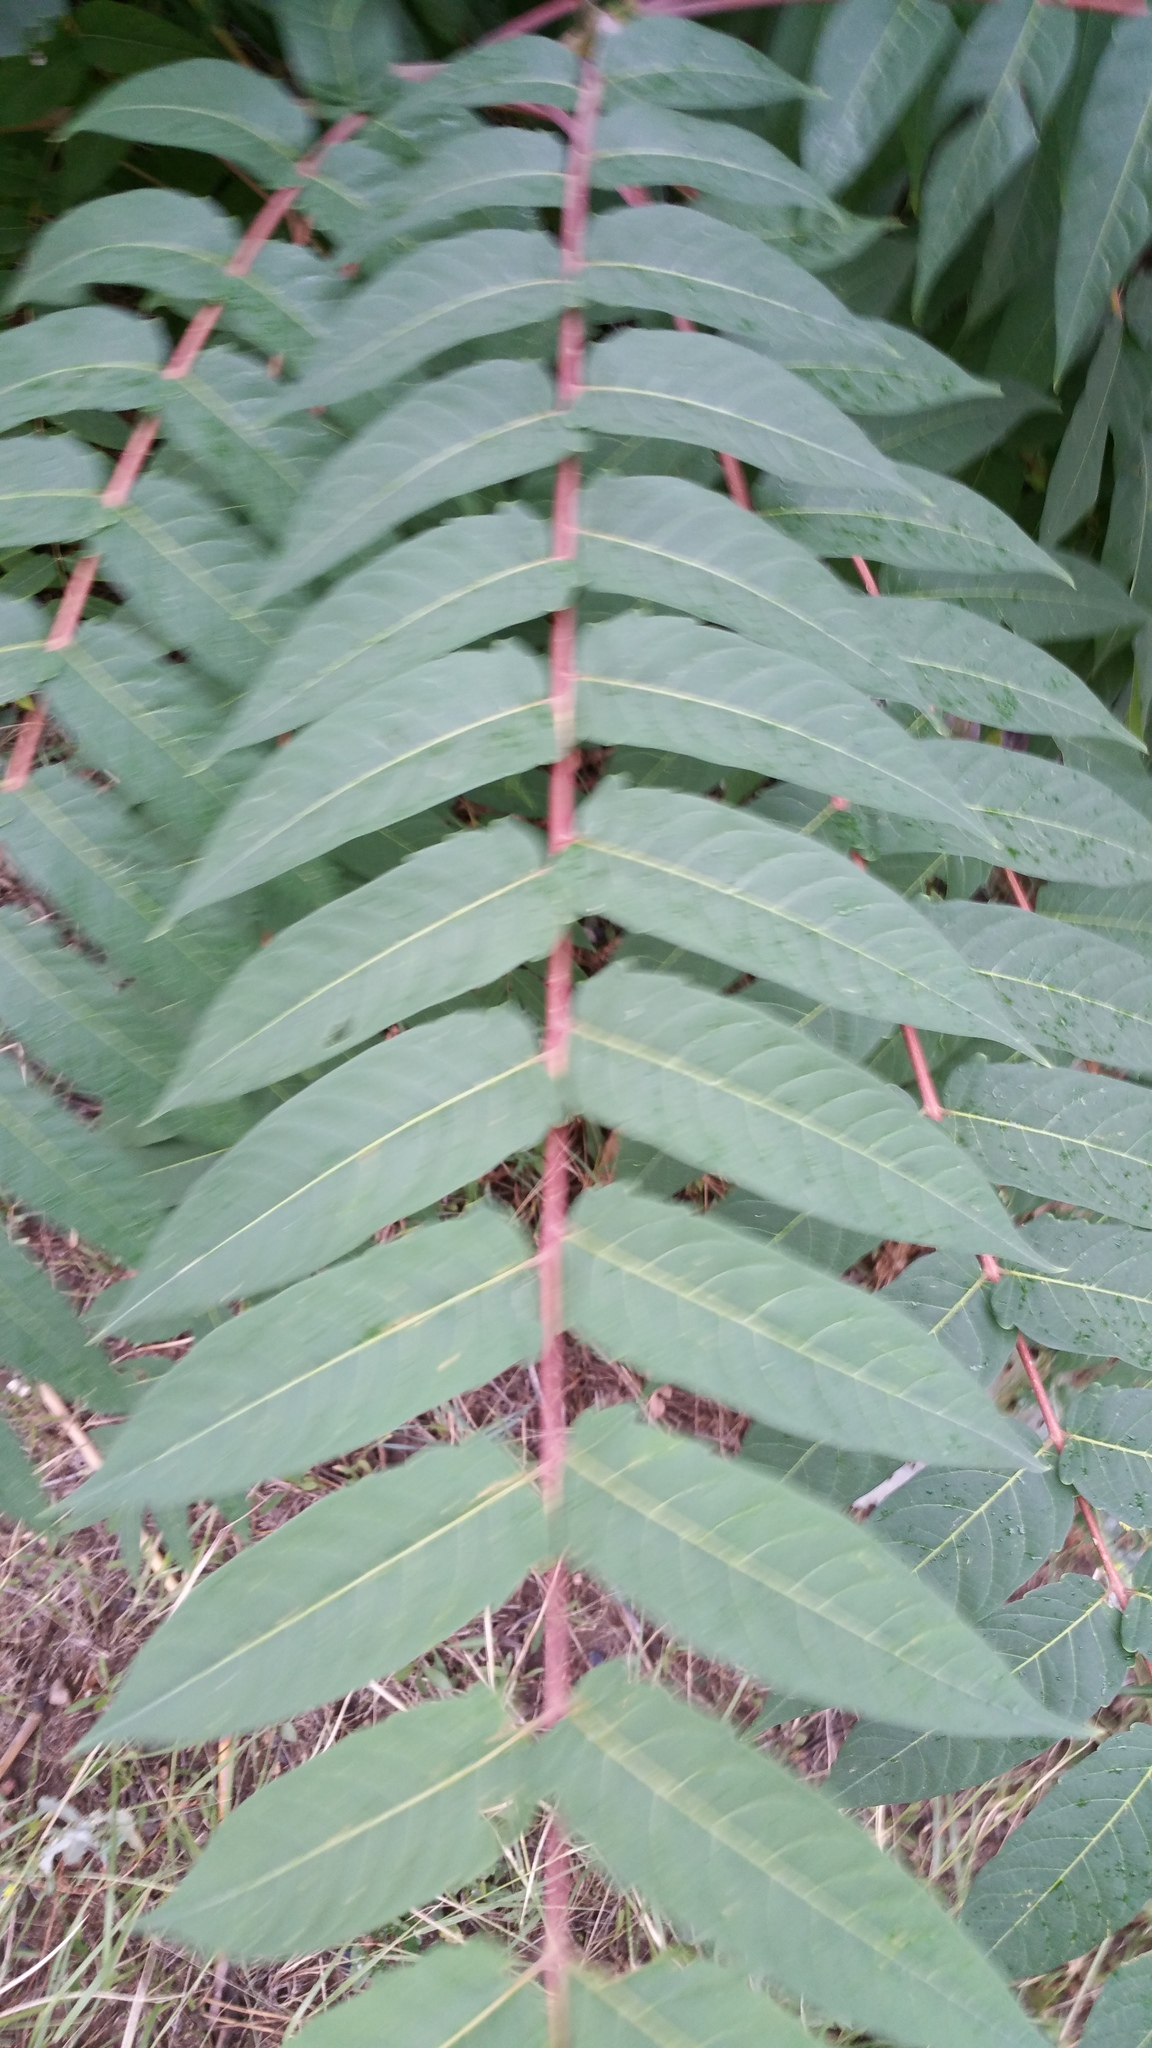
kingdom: Plantae
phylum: Tracheophyta
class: Magnoliopsida
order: Sapindales
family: Simaroubaceae
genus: Ailanthus
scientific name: Ailanthus altissima
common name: Tree-of-heaven
